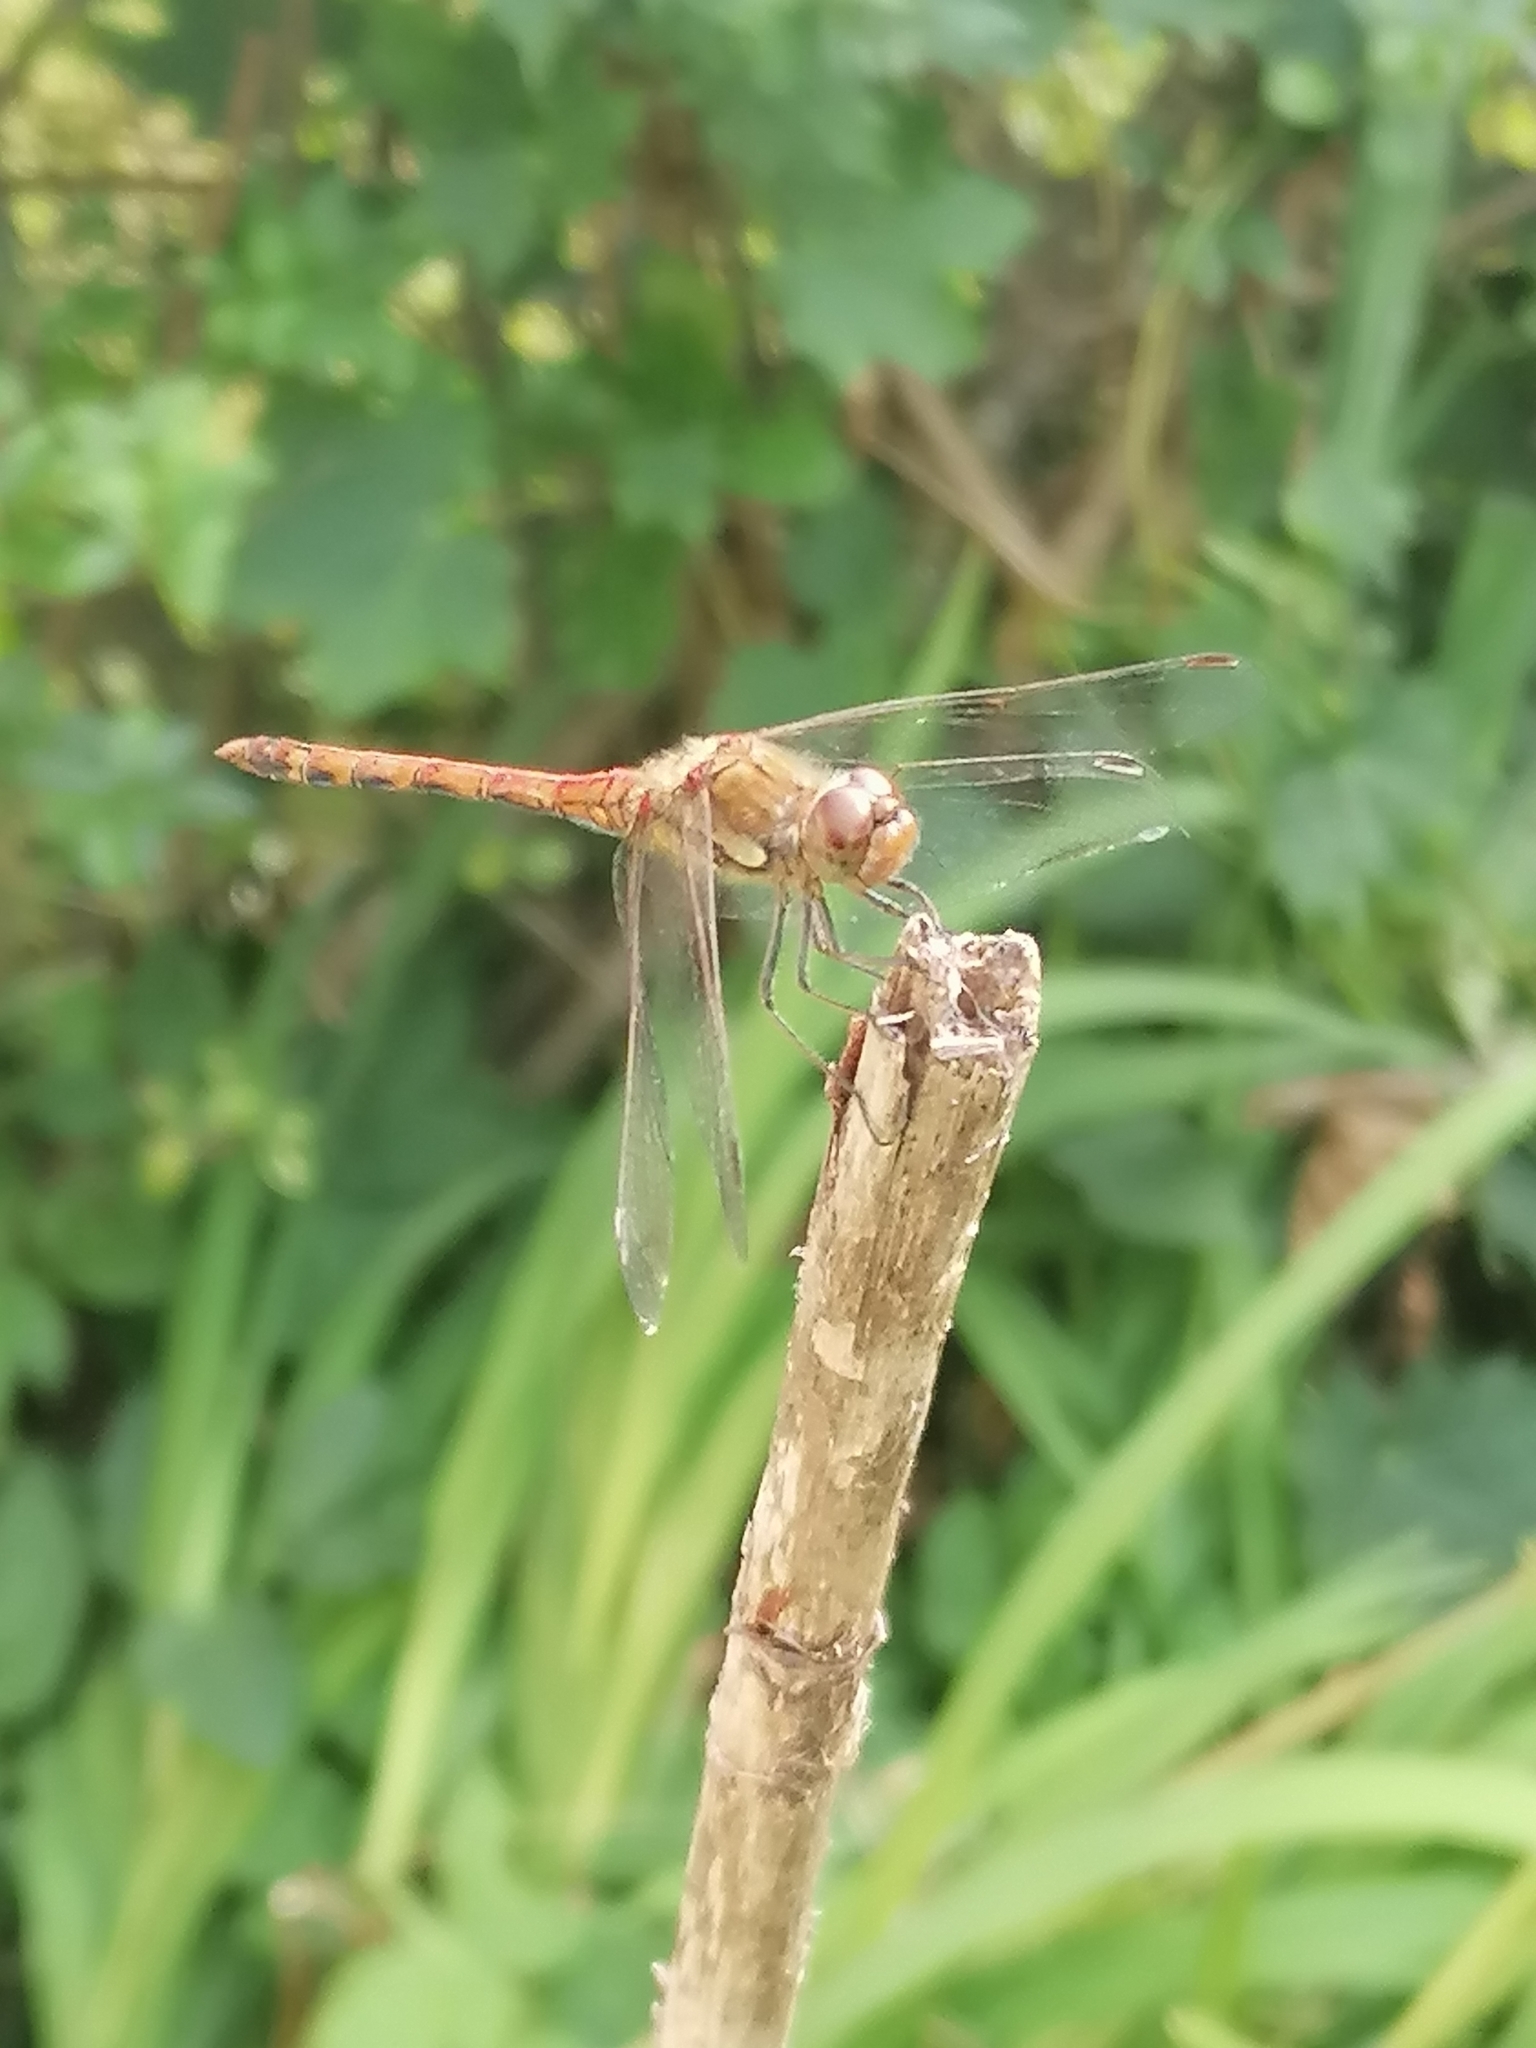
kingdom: Animalia
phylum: Arthropoda
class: Insecta
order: Odonata
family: Libellulidae
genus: Sympetrum
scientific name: Sympetrum striolatum
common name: Common darter
